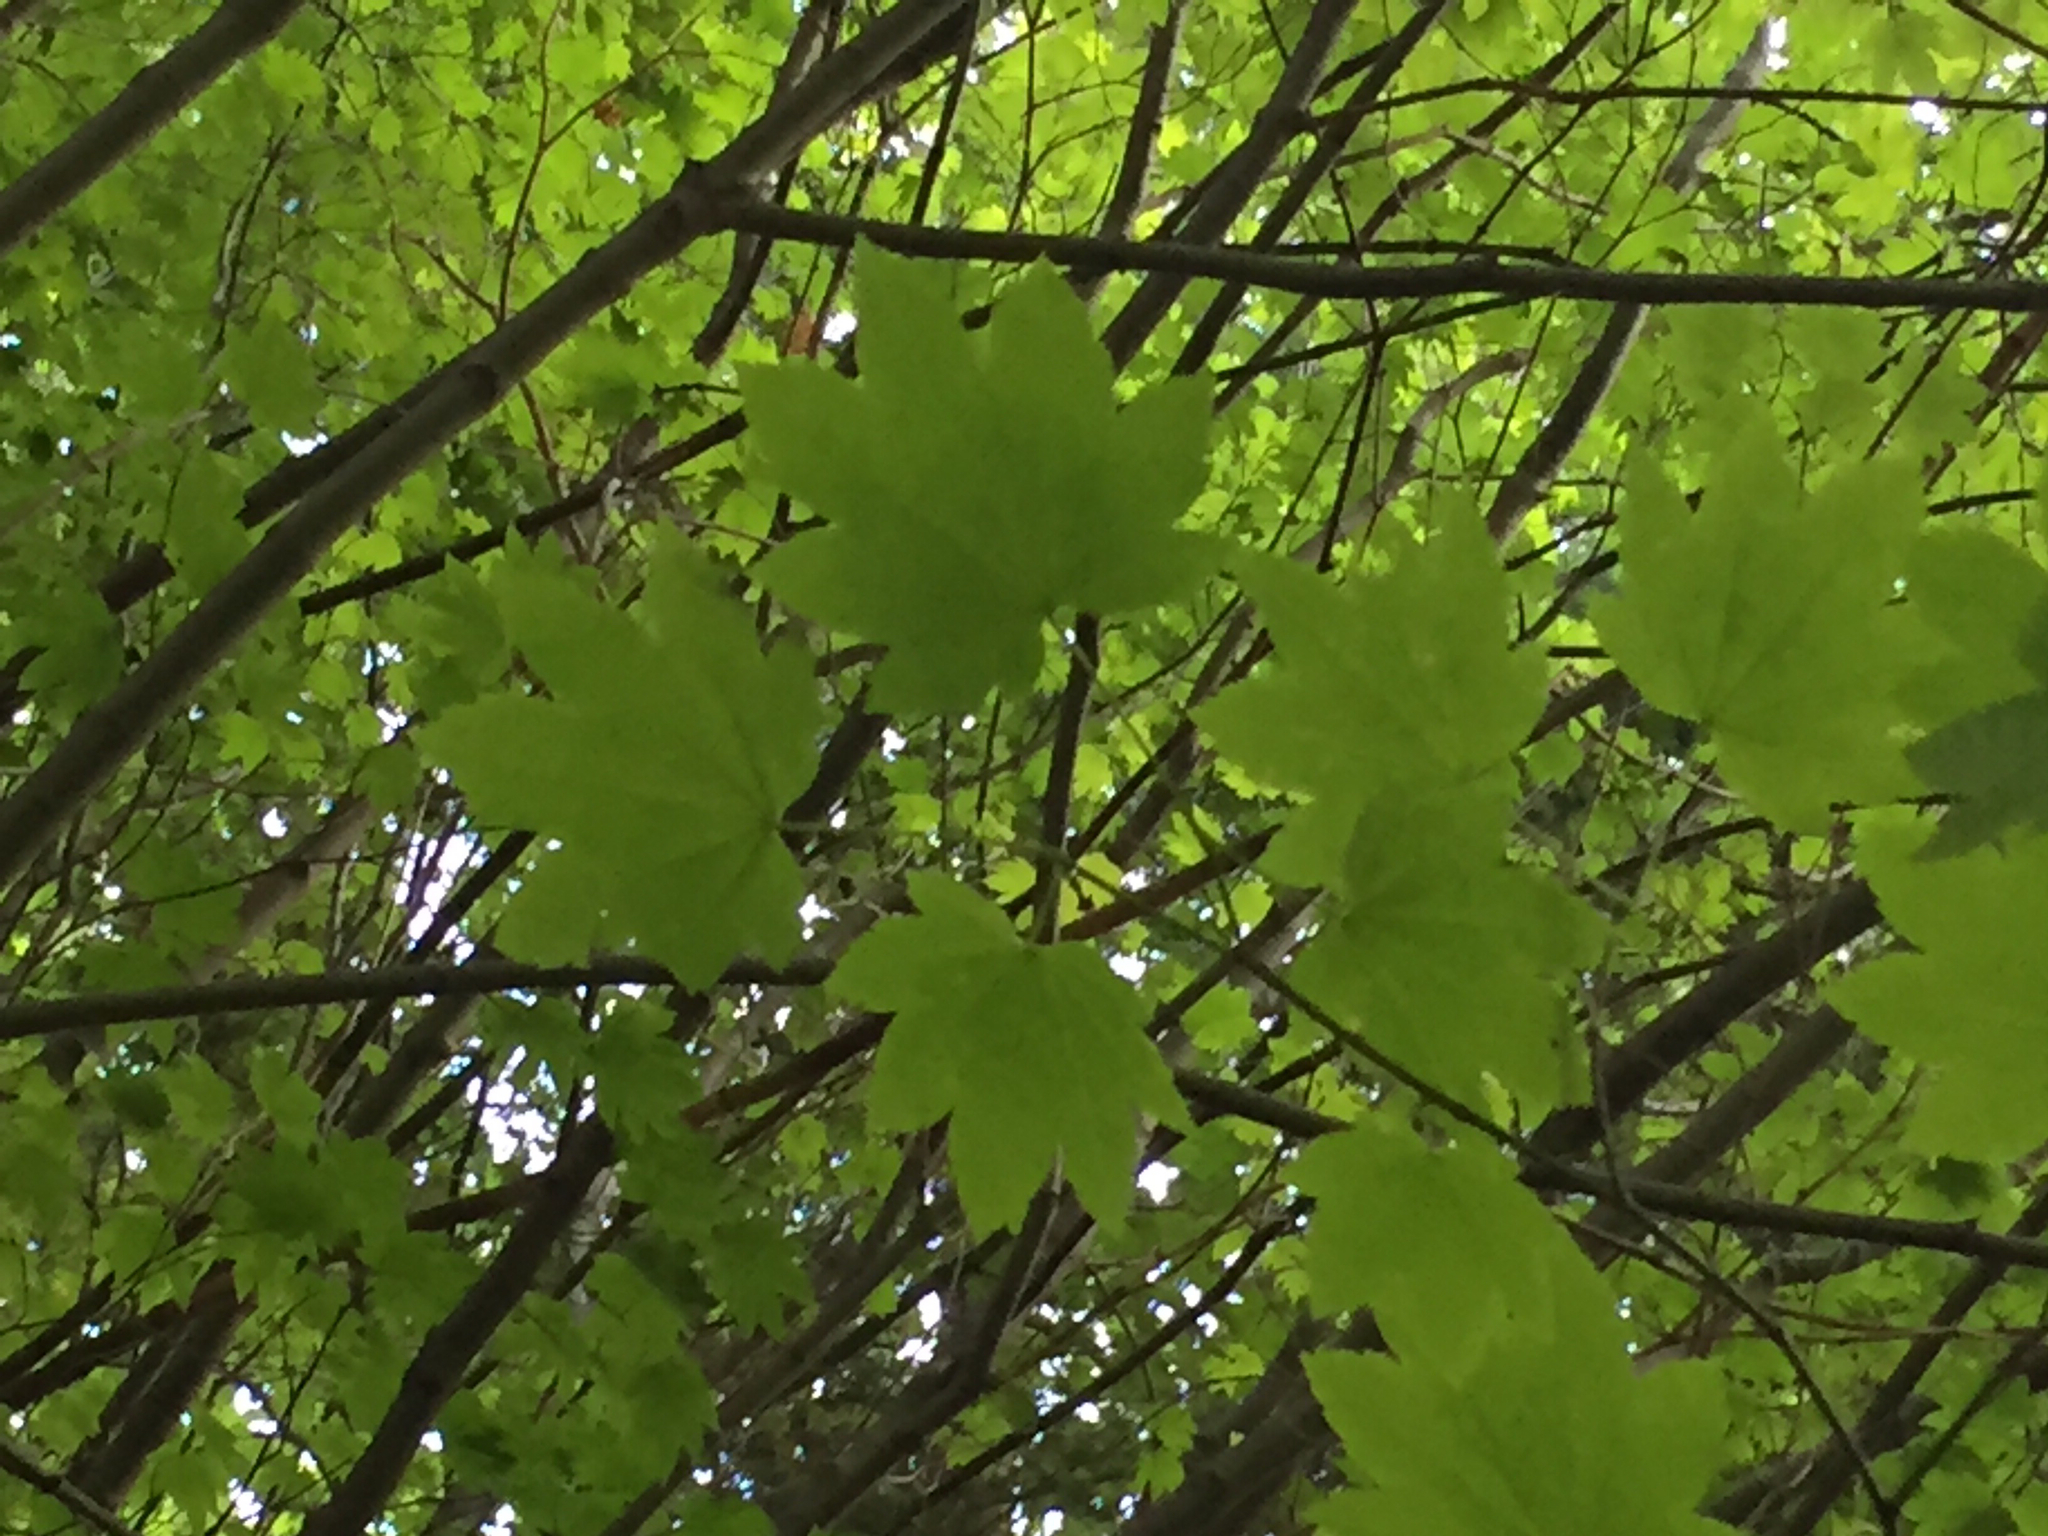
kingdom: Plantae
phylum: Tracheophyta
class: Magnoliopsida
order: Sapindales
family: Sapindaceae
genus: Acer
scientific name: Acer circinatum
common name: Vine maple
